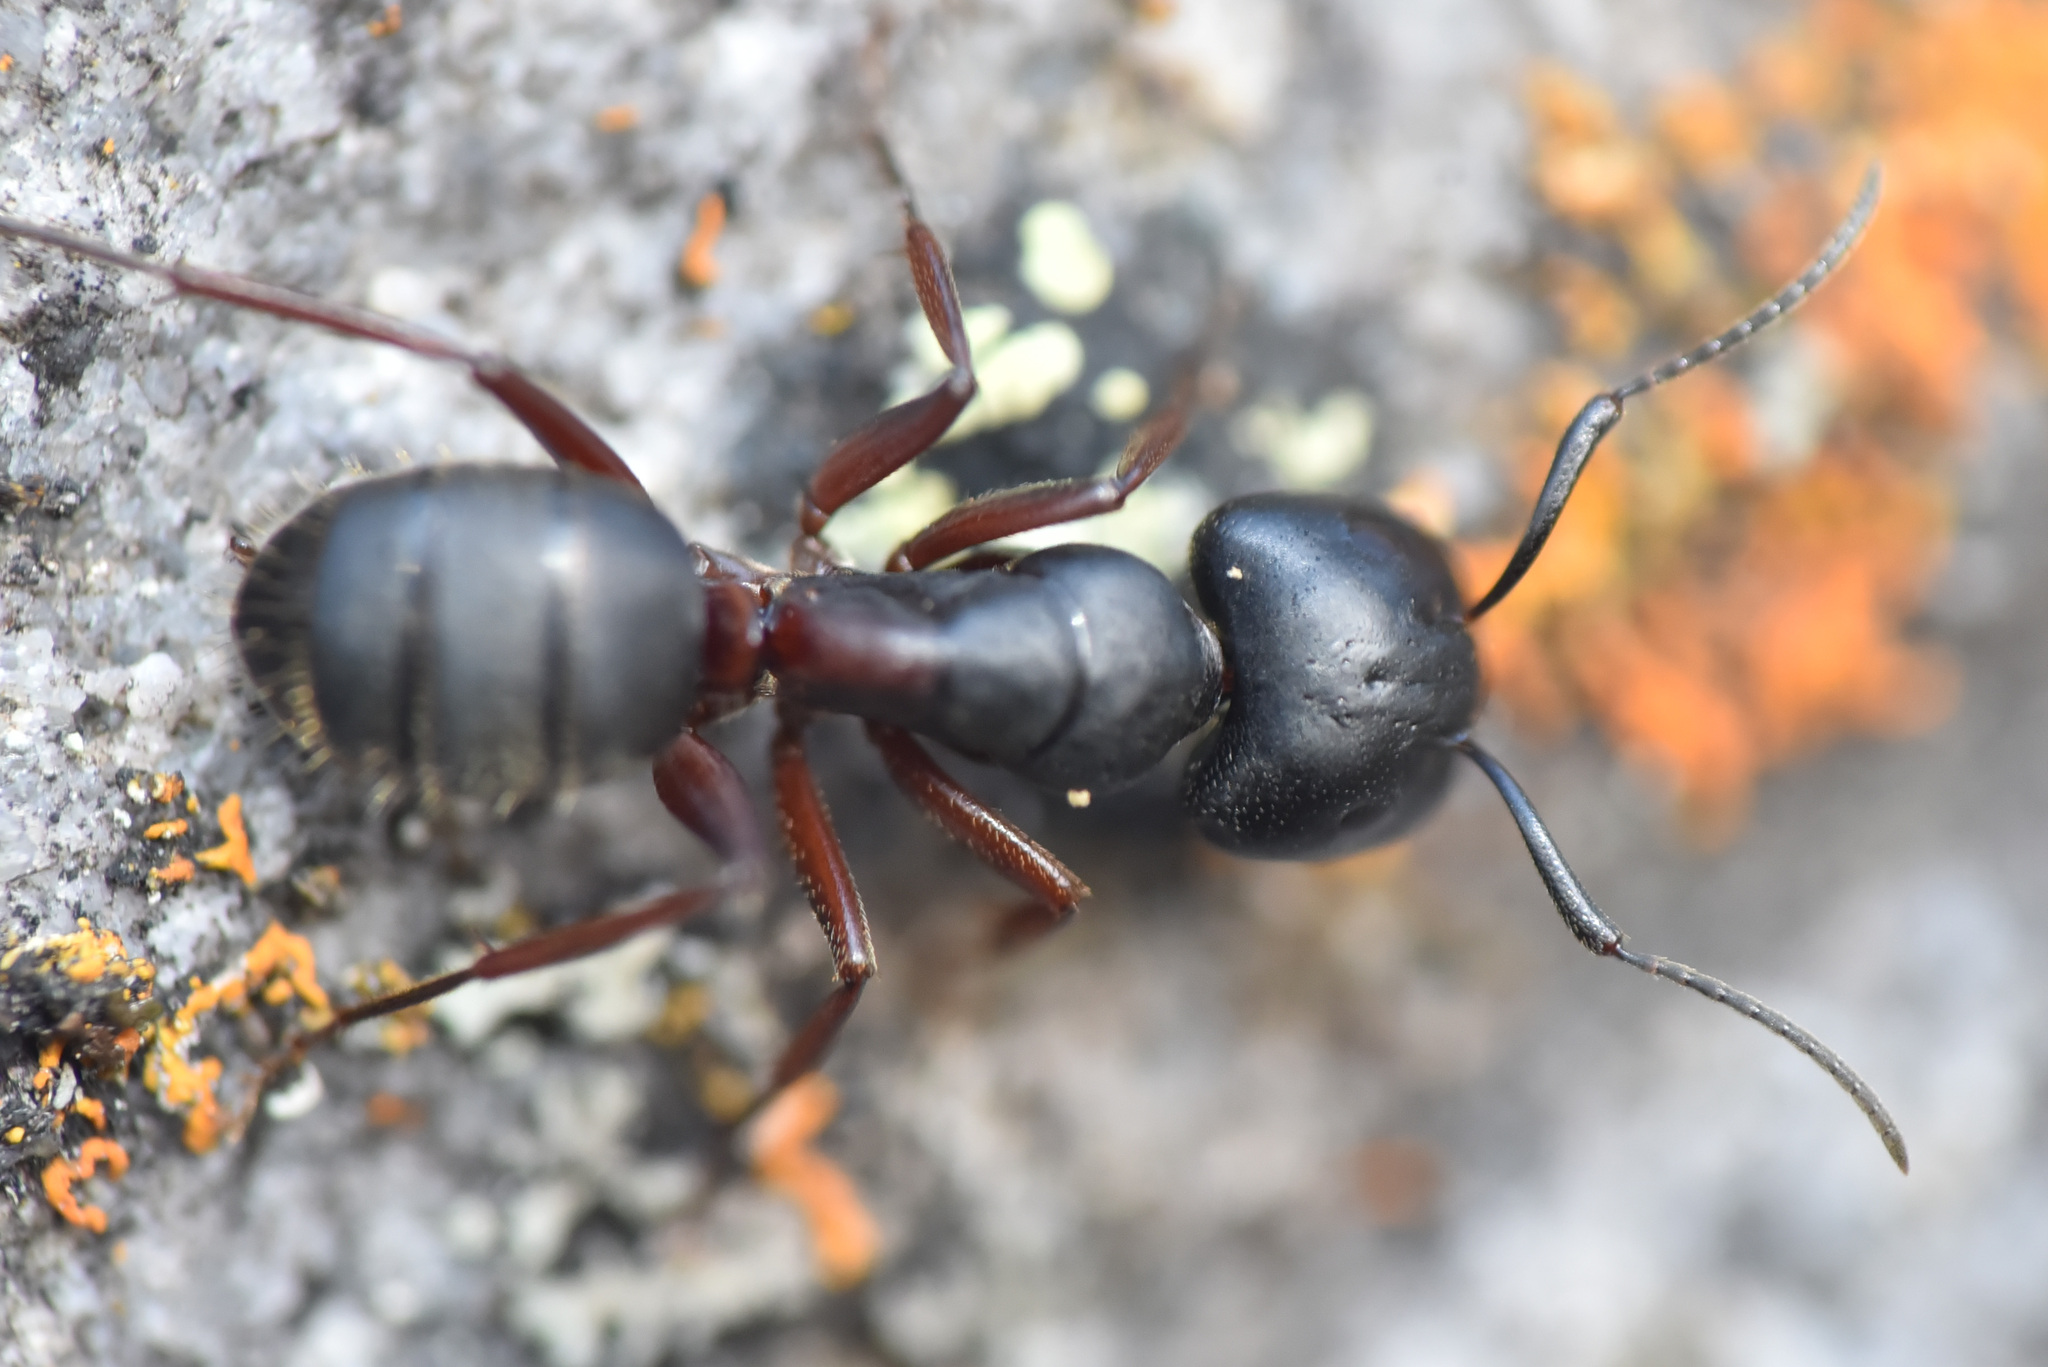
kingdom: Animalia
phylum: Arthropoda
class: Insecta
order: Hymenoptera
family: Formicidae
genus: Camponotus
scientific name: Camponotus herculeanus
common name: Hercules ant
